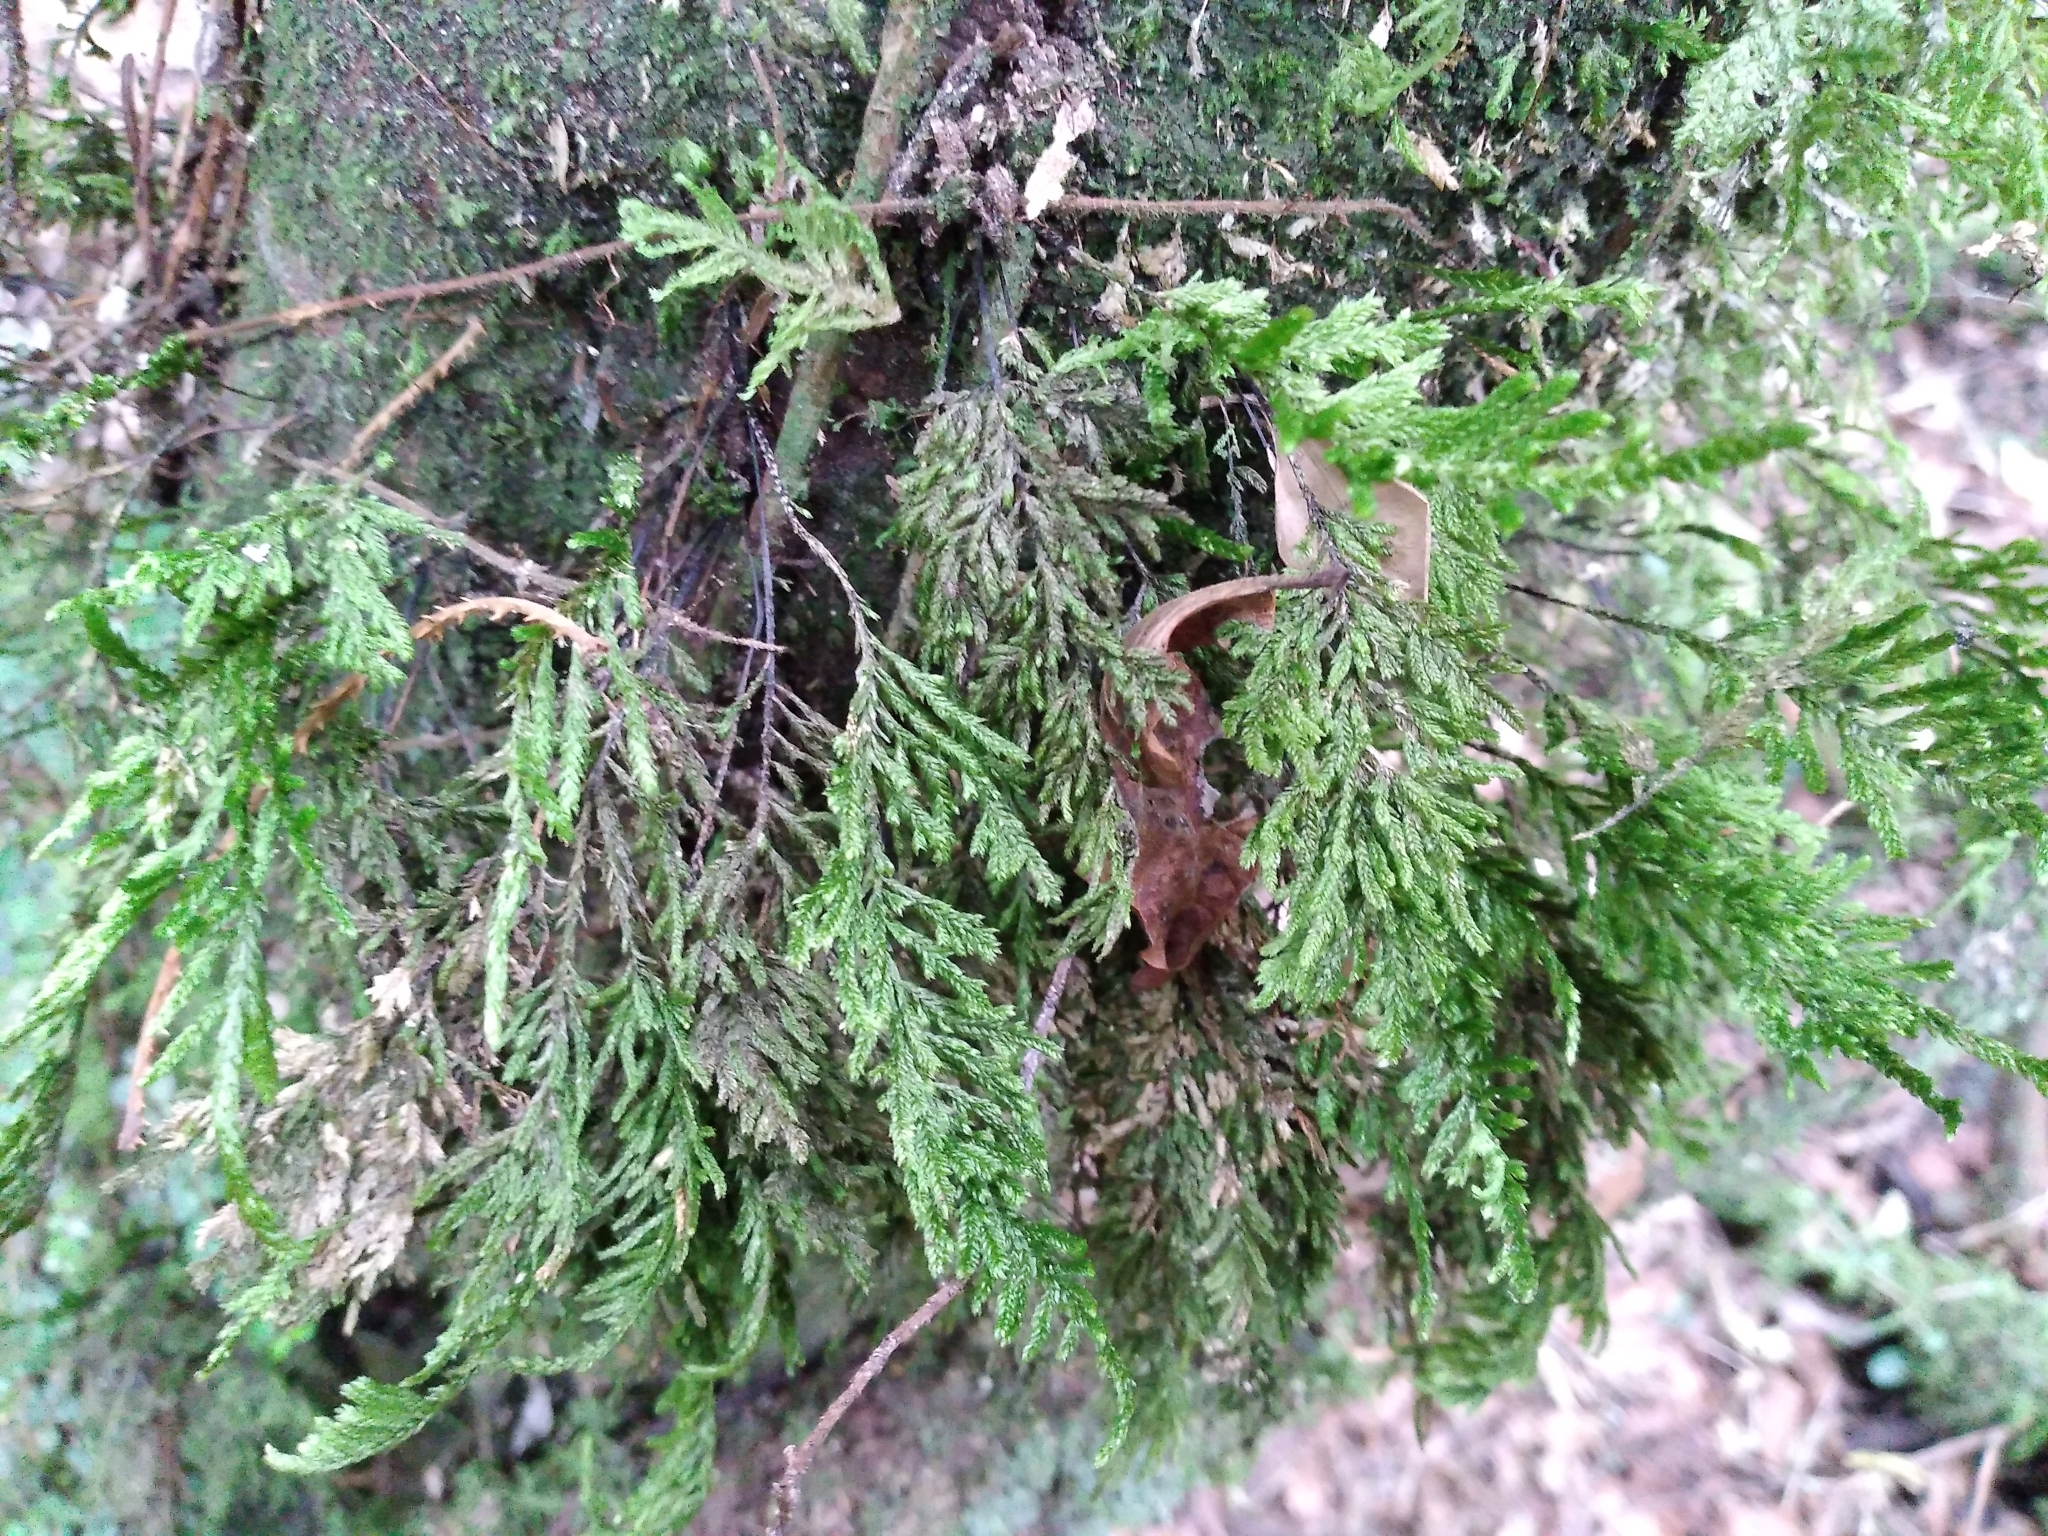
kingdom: Plantae
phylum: Bryophyta
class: Bryopsida
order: Hypnodendrales
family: Braithwaiteaceae
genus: Braithwaitea
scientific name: Braithwaitea sulcata
